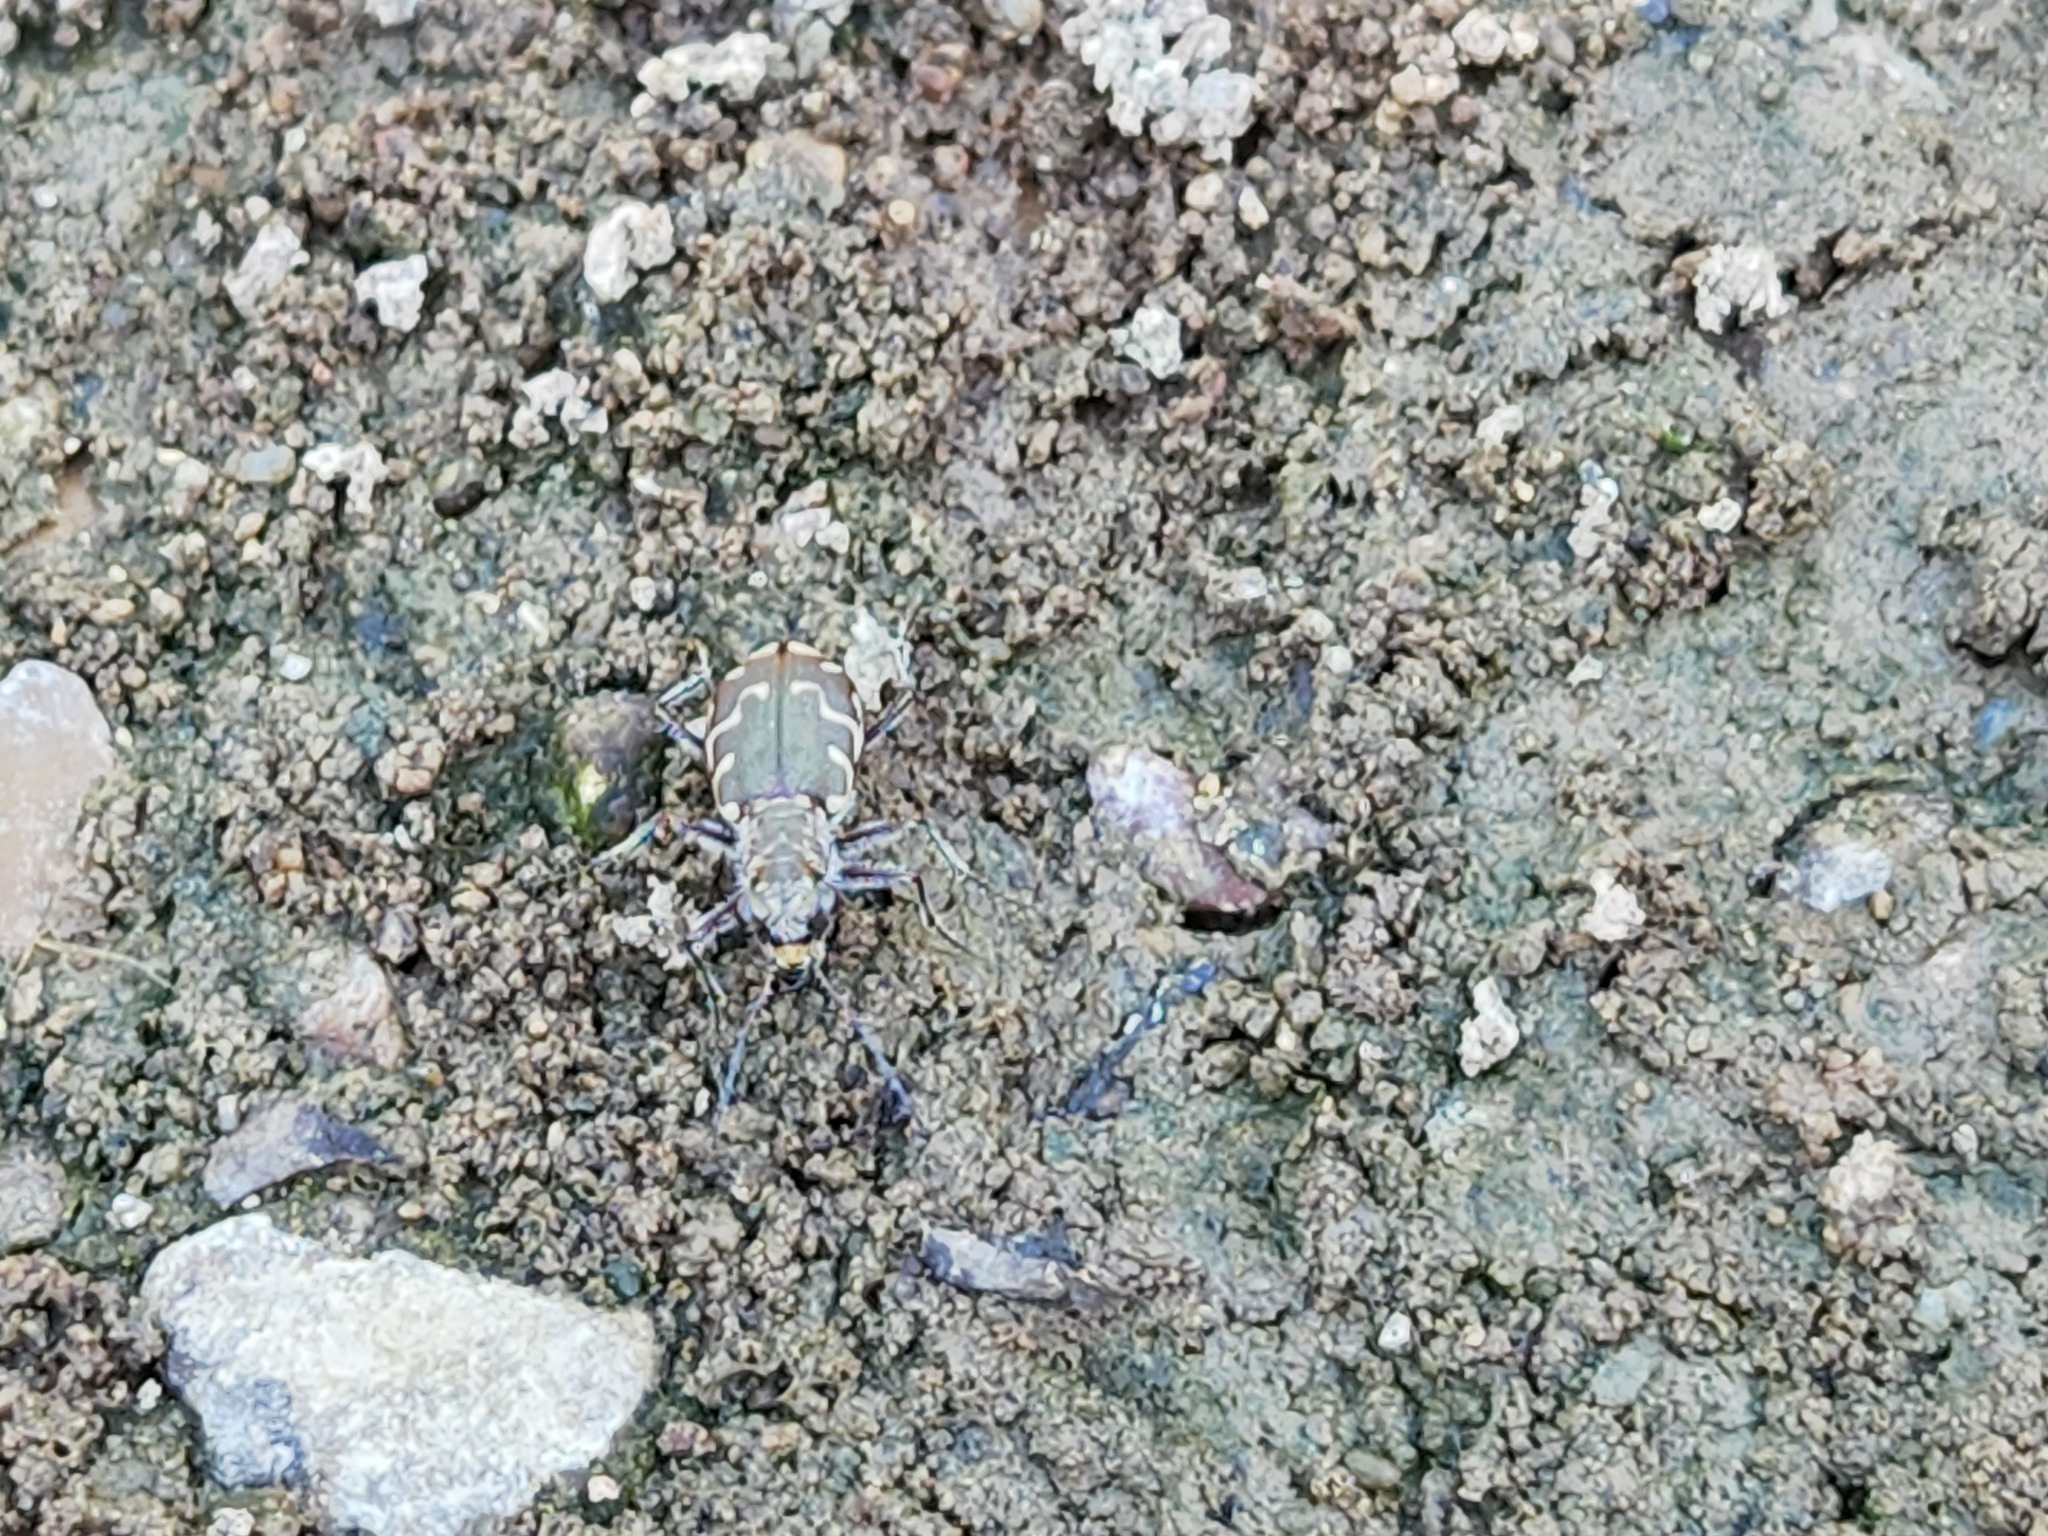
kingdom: Animalia
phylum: Arthropoda
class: Insecta
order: Coleoptera
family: Carabidae
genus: Cicindela
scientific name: Cicindela repanda
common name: Bronzed tiger beetle
